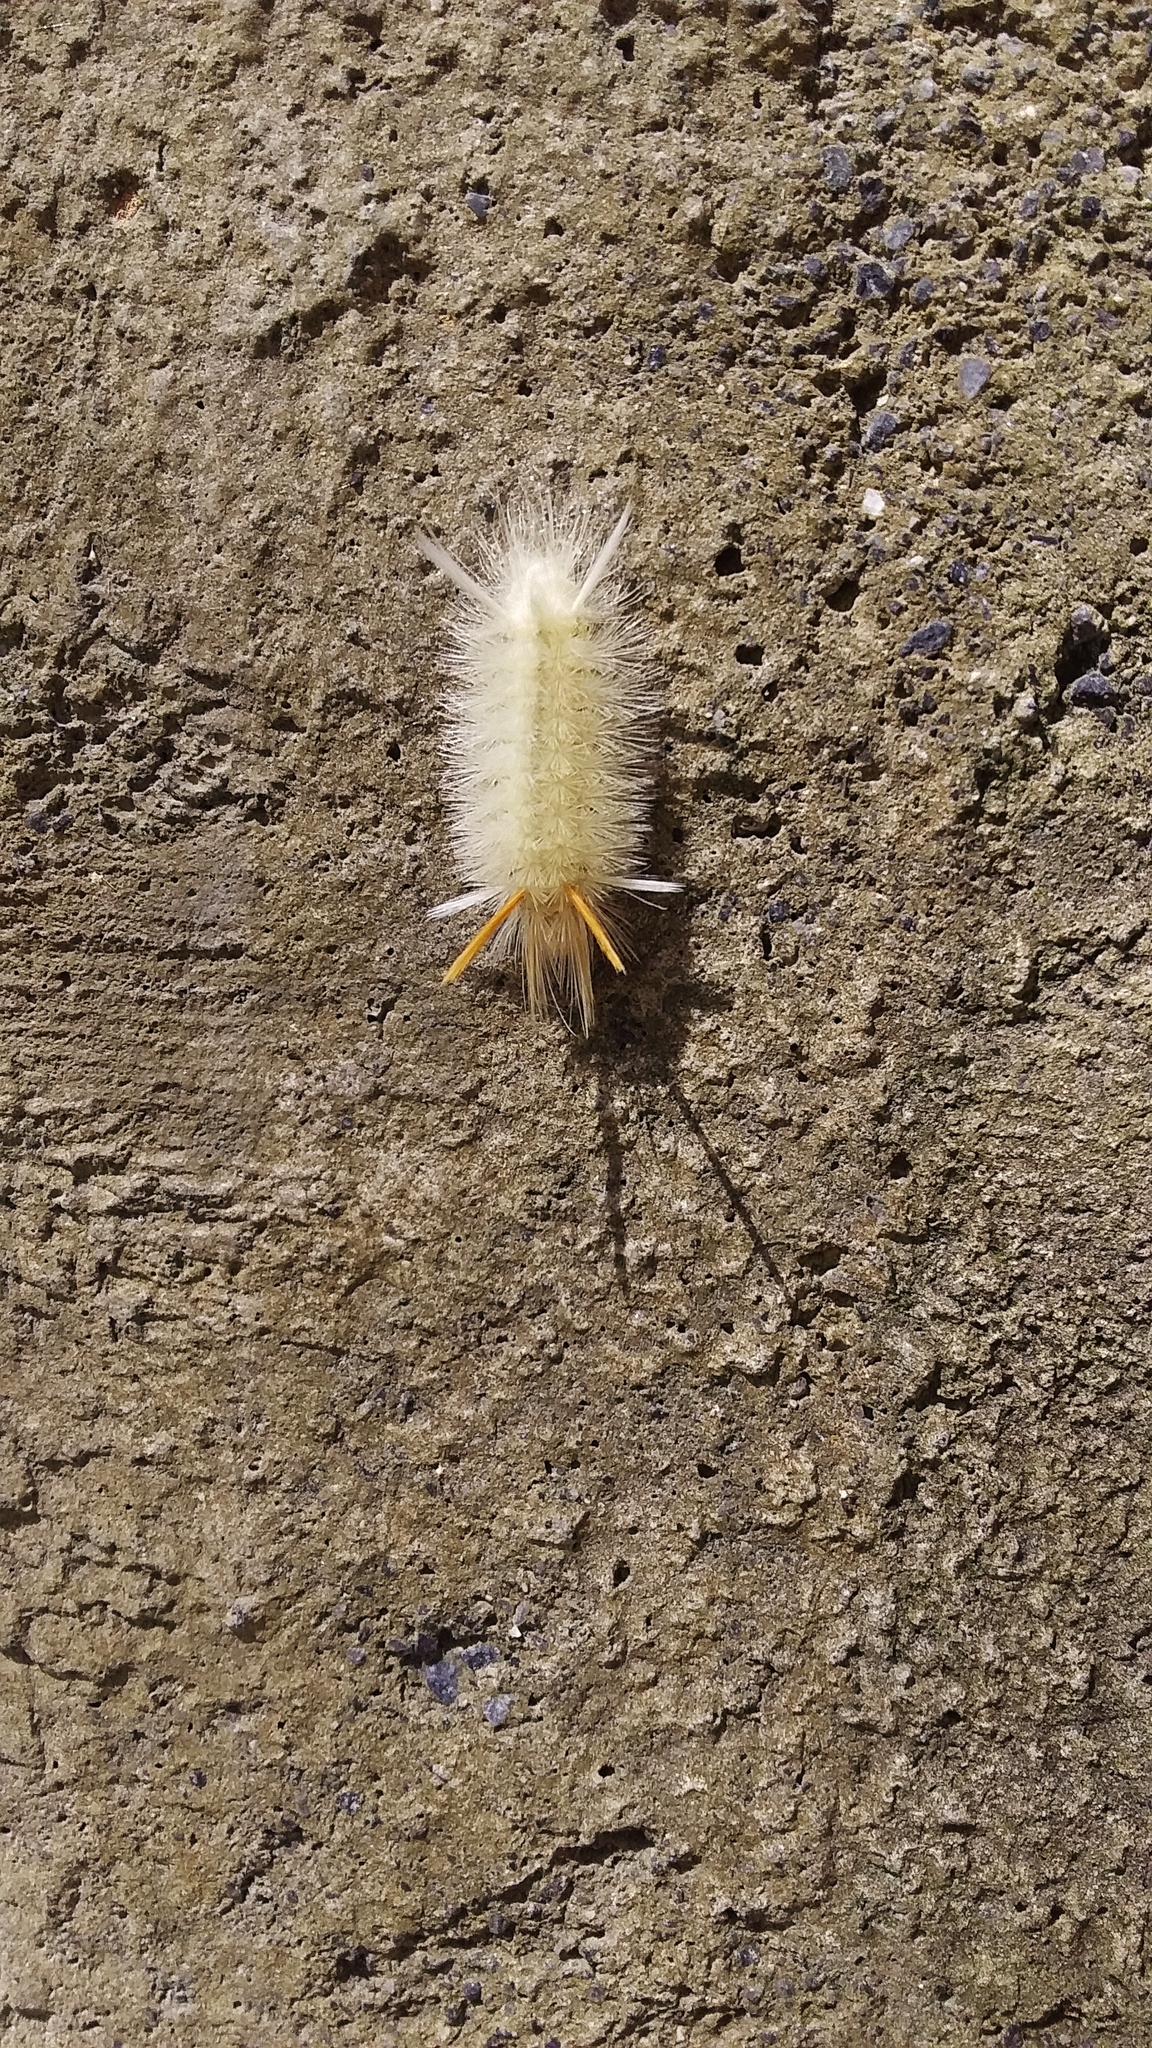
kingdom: Animalia
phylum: Arthropoda
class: Insecta
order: Lepidoptera
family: Erebidae
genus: Halysidota
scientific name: Halysidota harrisii
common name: Sycamore tussock moth
